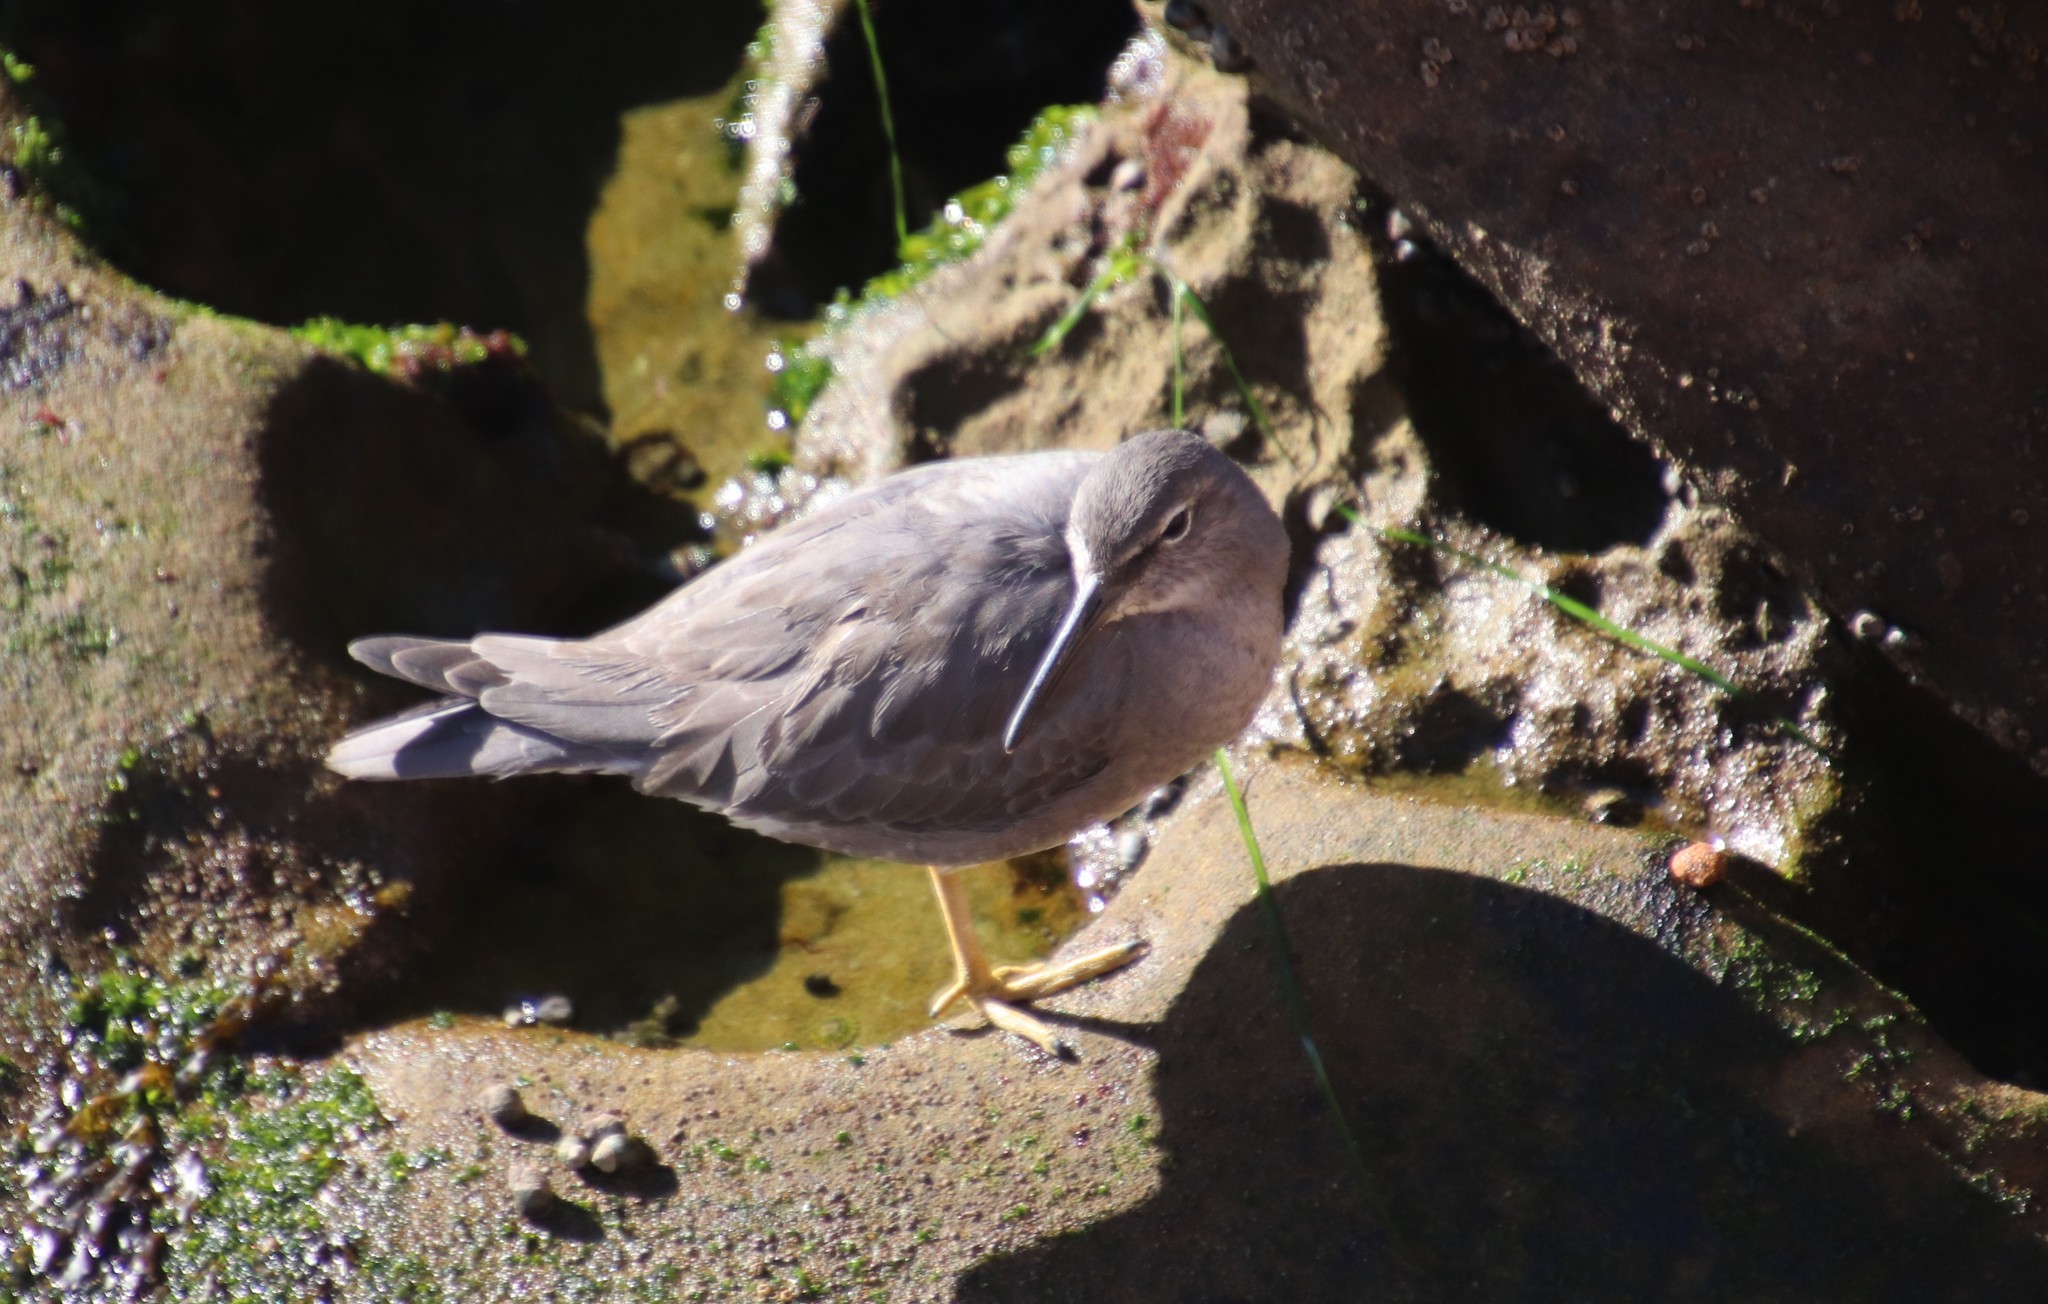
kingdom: Animalia
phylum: Chordata
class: Aves
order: Charadriiformes
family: Scolopacidae
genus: Tringa
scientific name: Tringa incana
